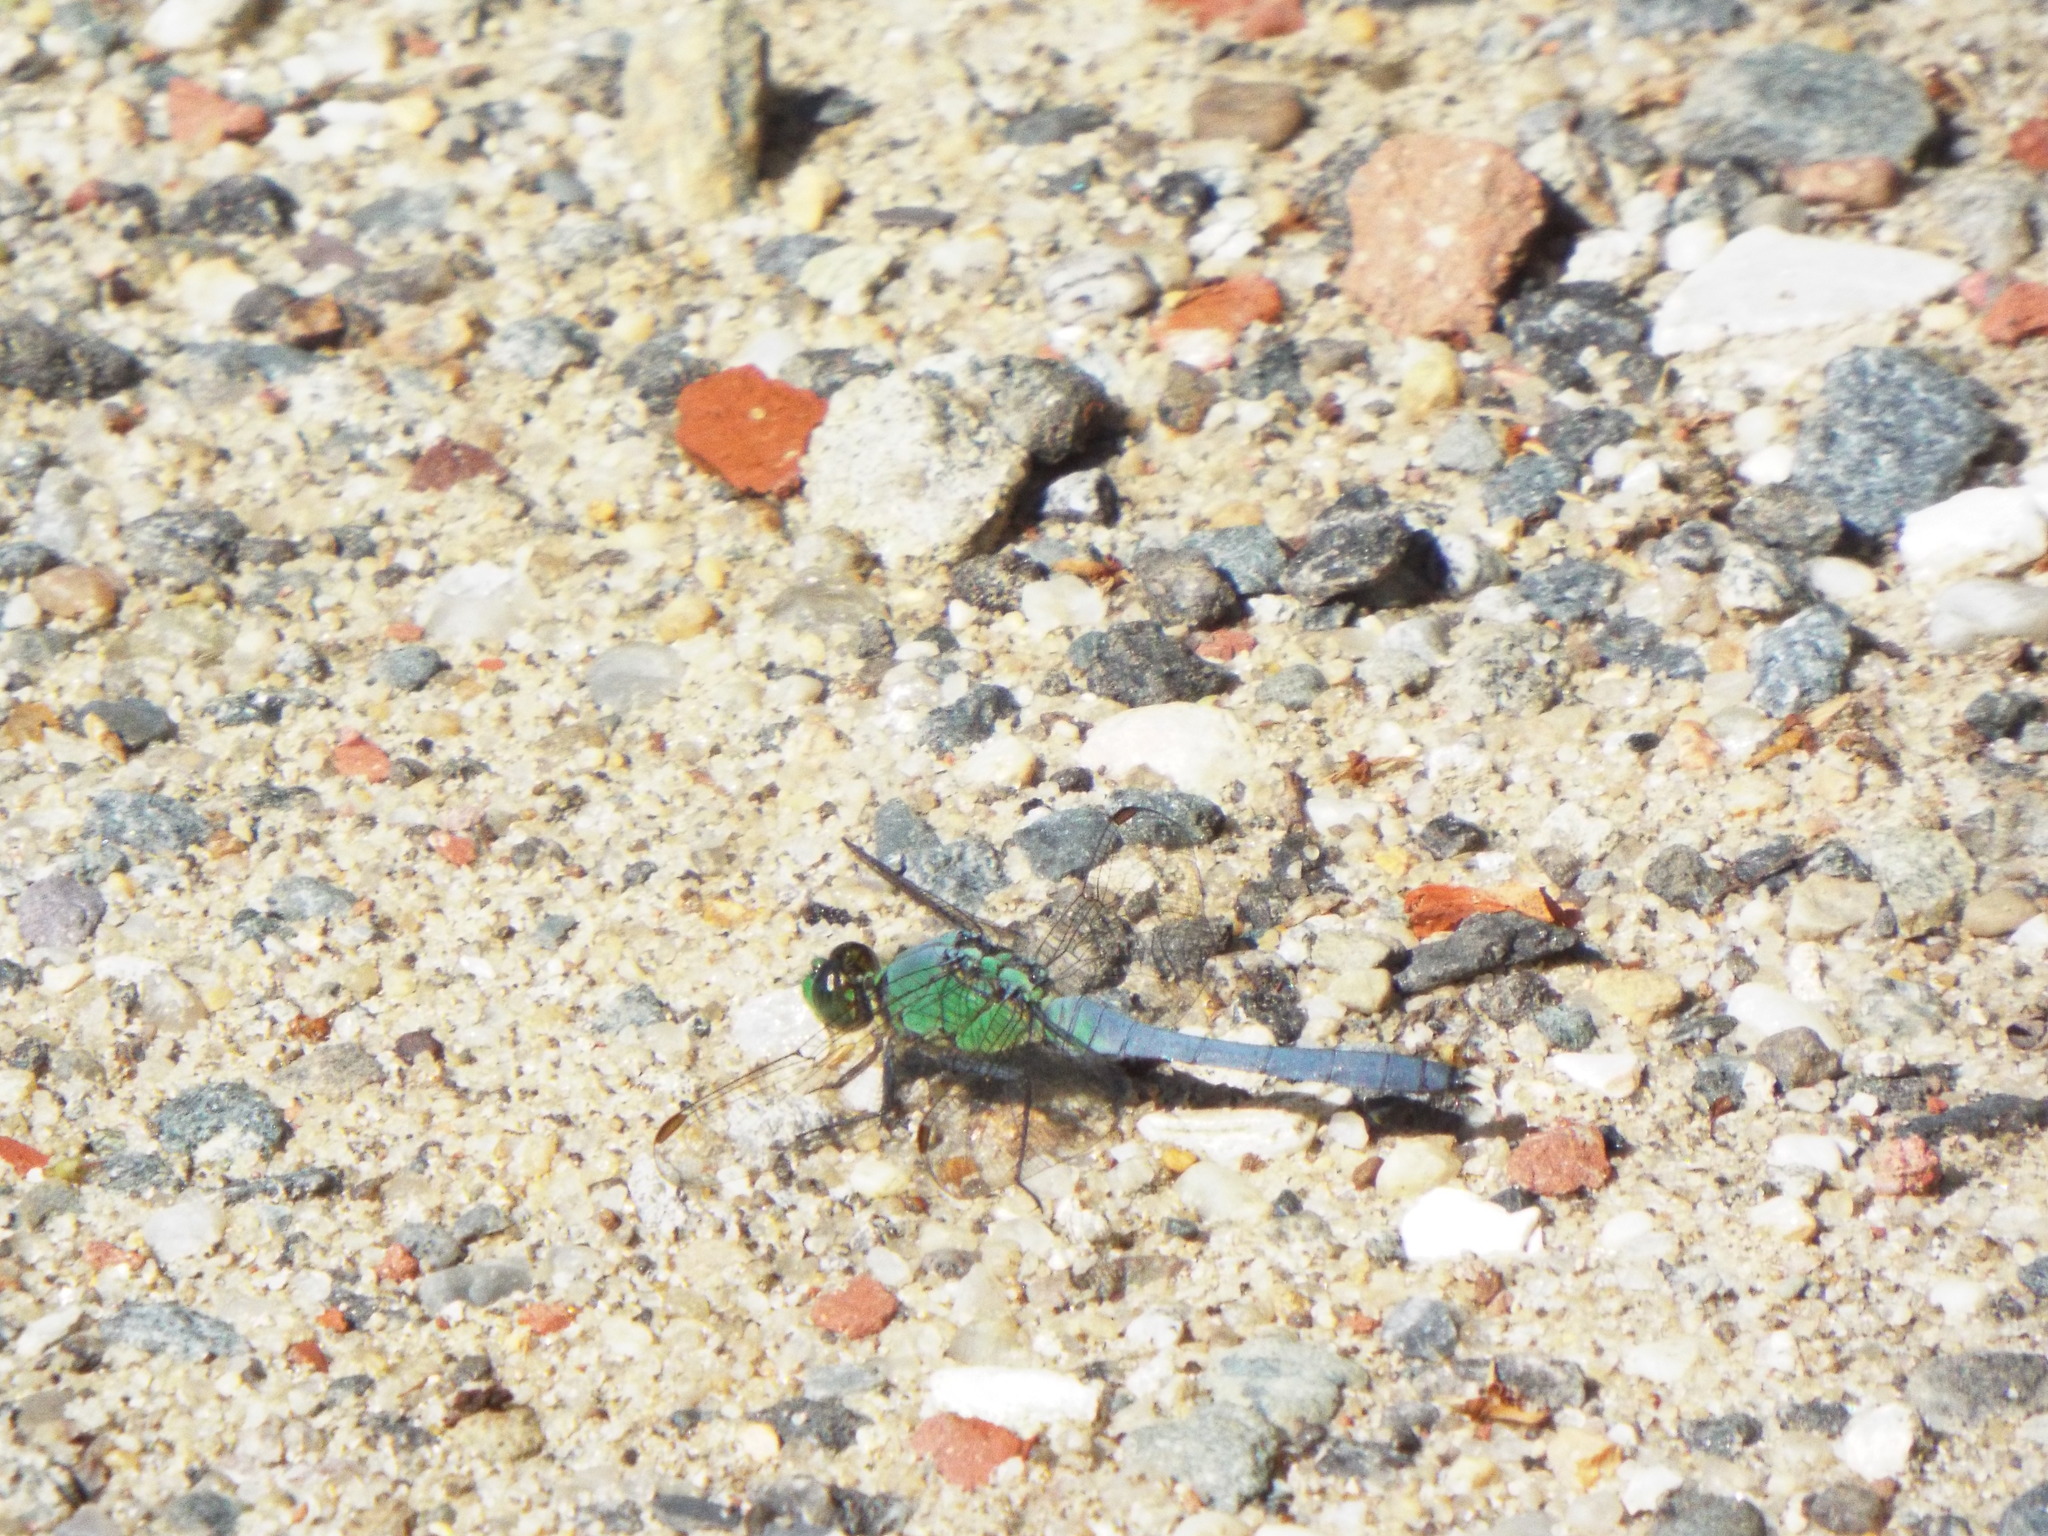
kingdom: Animalia
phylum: Arthropoda
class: Insecta
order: Odonata
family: Libellulidae
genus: Erythemis
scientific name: Erythemis simplicicollis
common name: Eastern pondhawk
